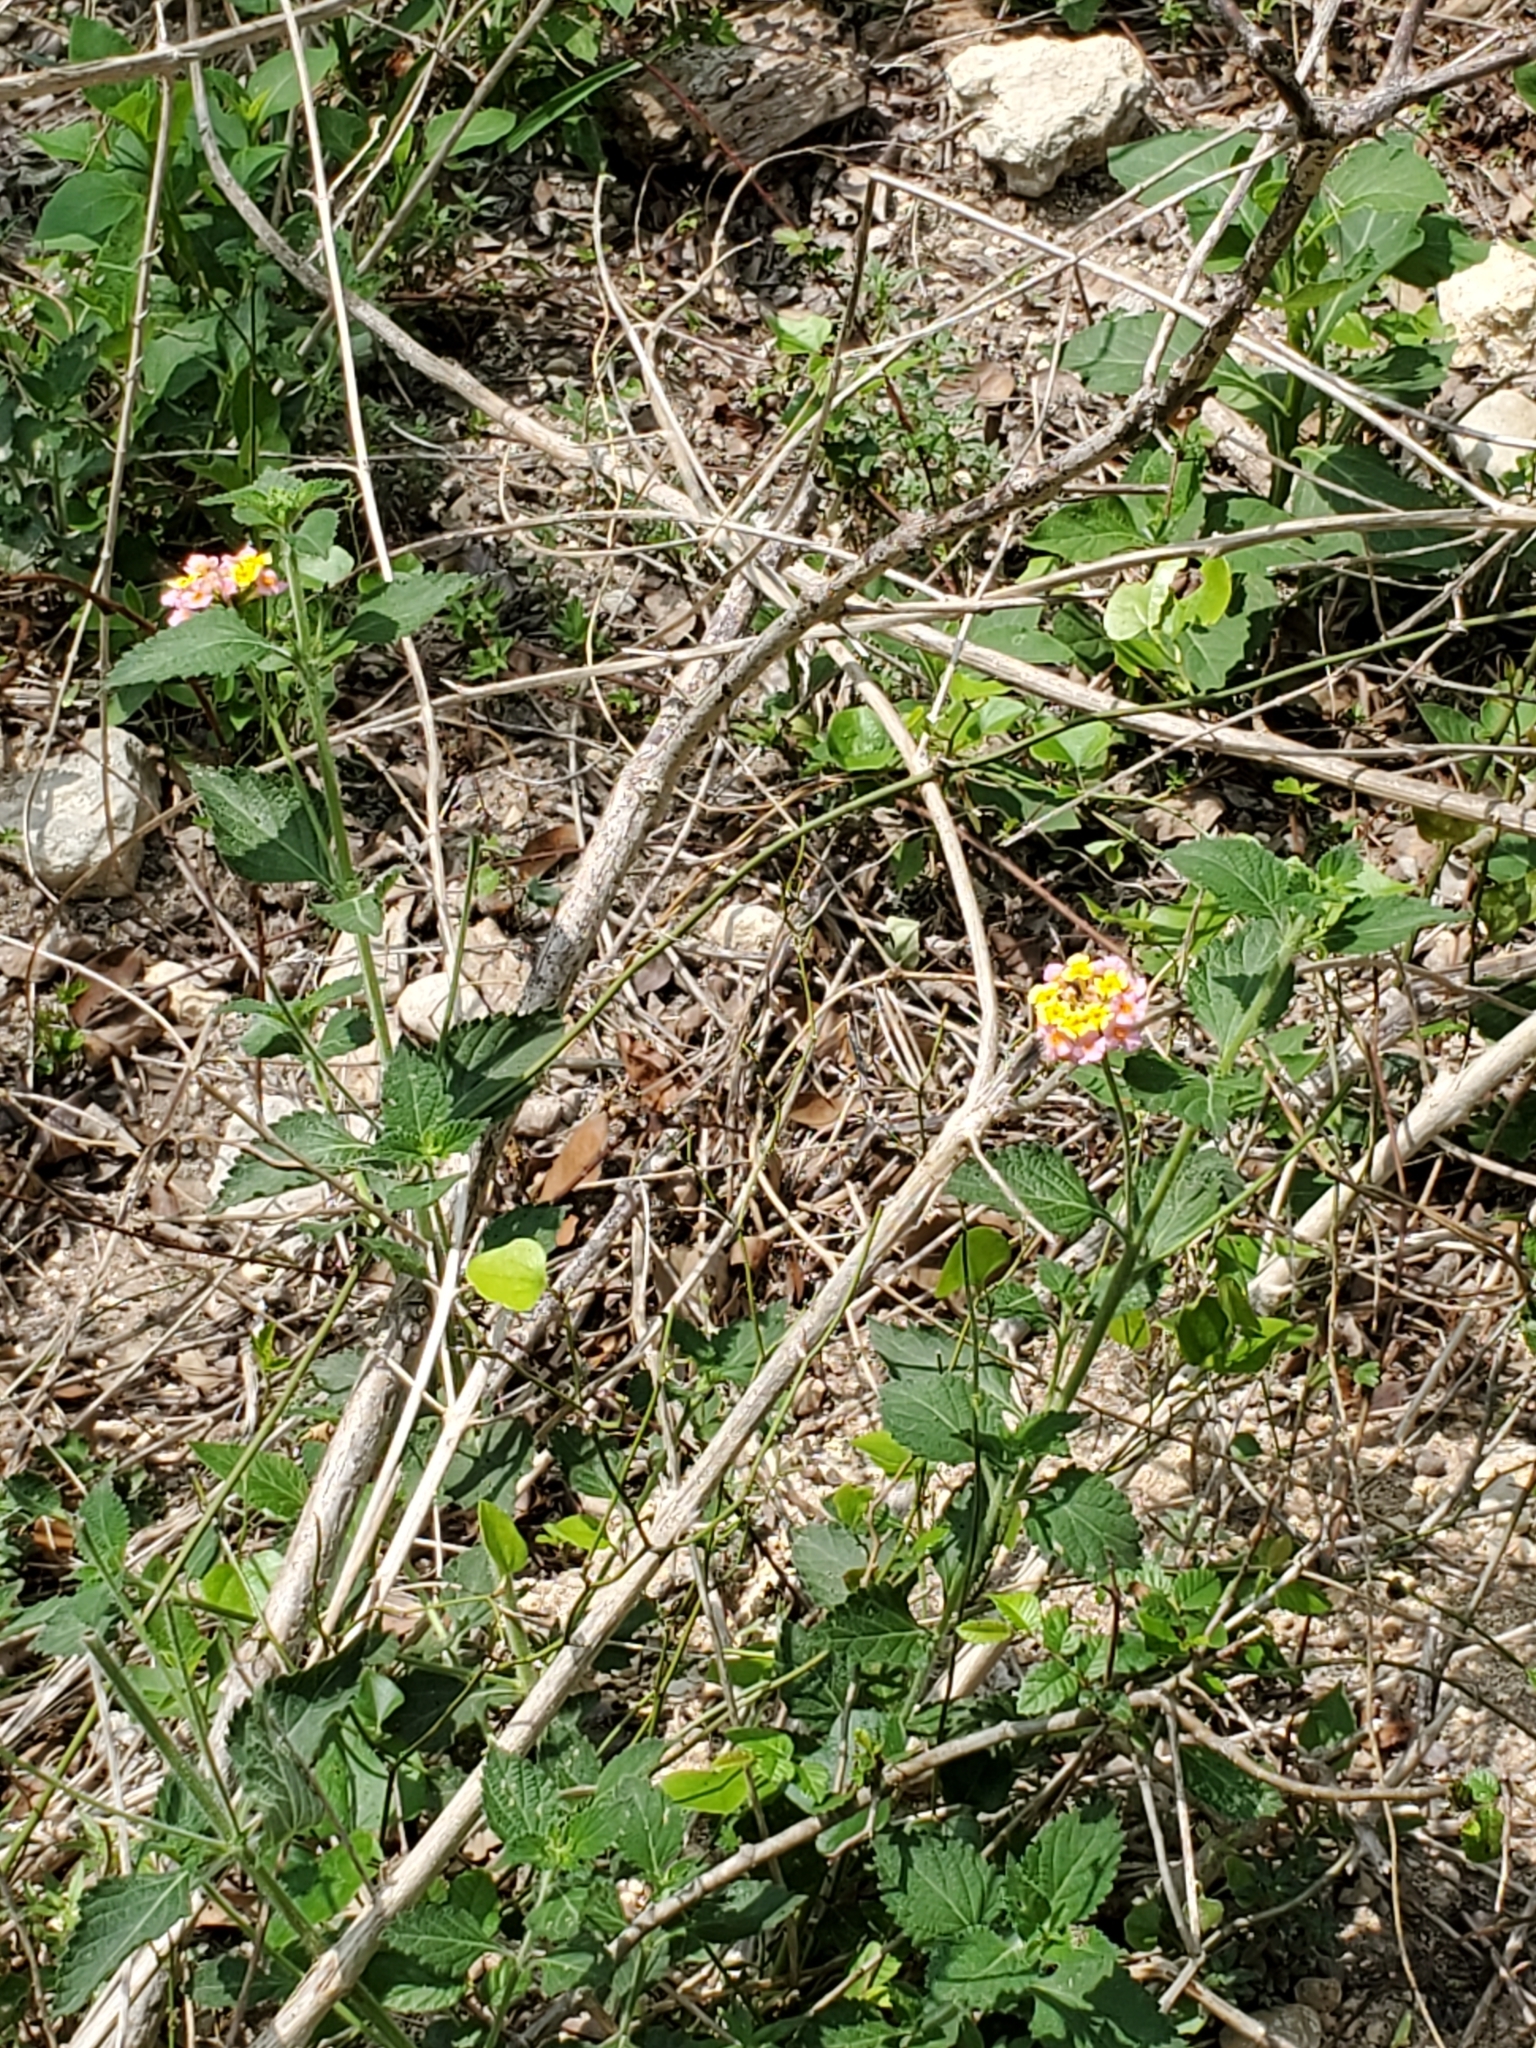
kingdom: Plantae
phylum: Tracheophyta
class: Magnoliopsida
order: Lamiales
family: Verbenaceae
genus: Lantana
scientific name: Lantana strigocamara
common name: Lantana
